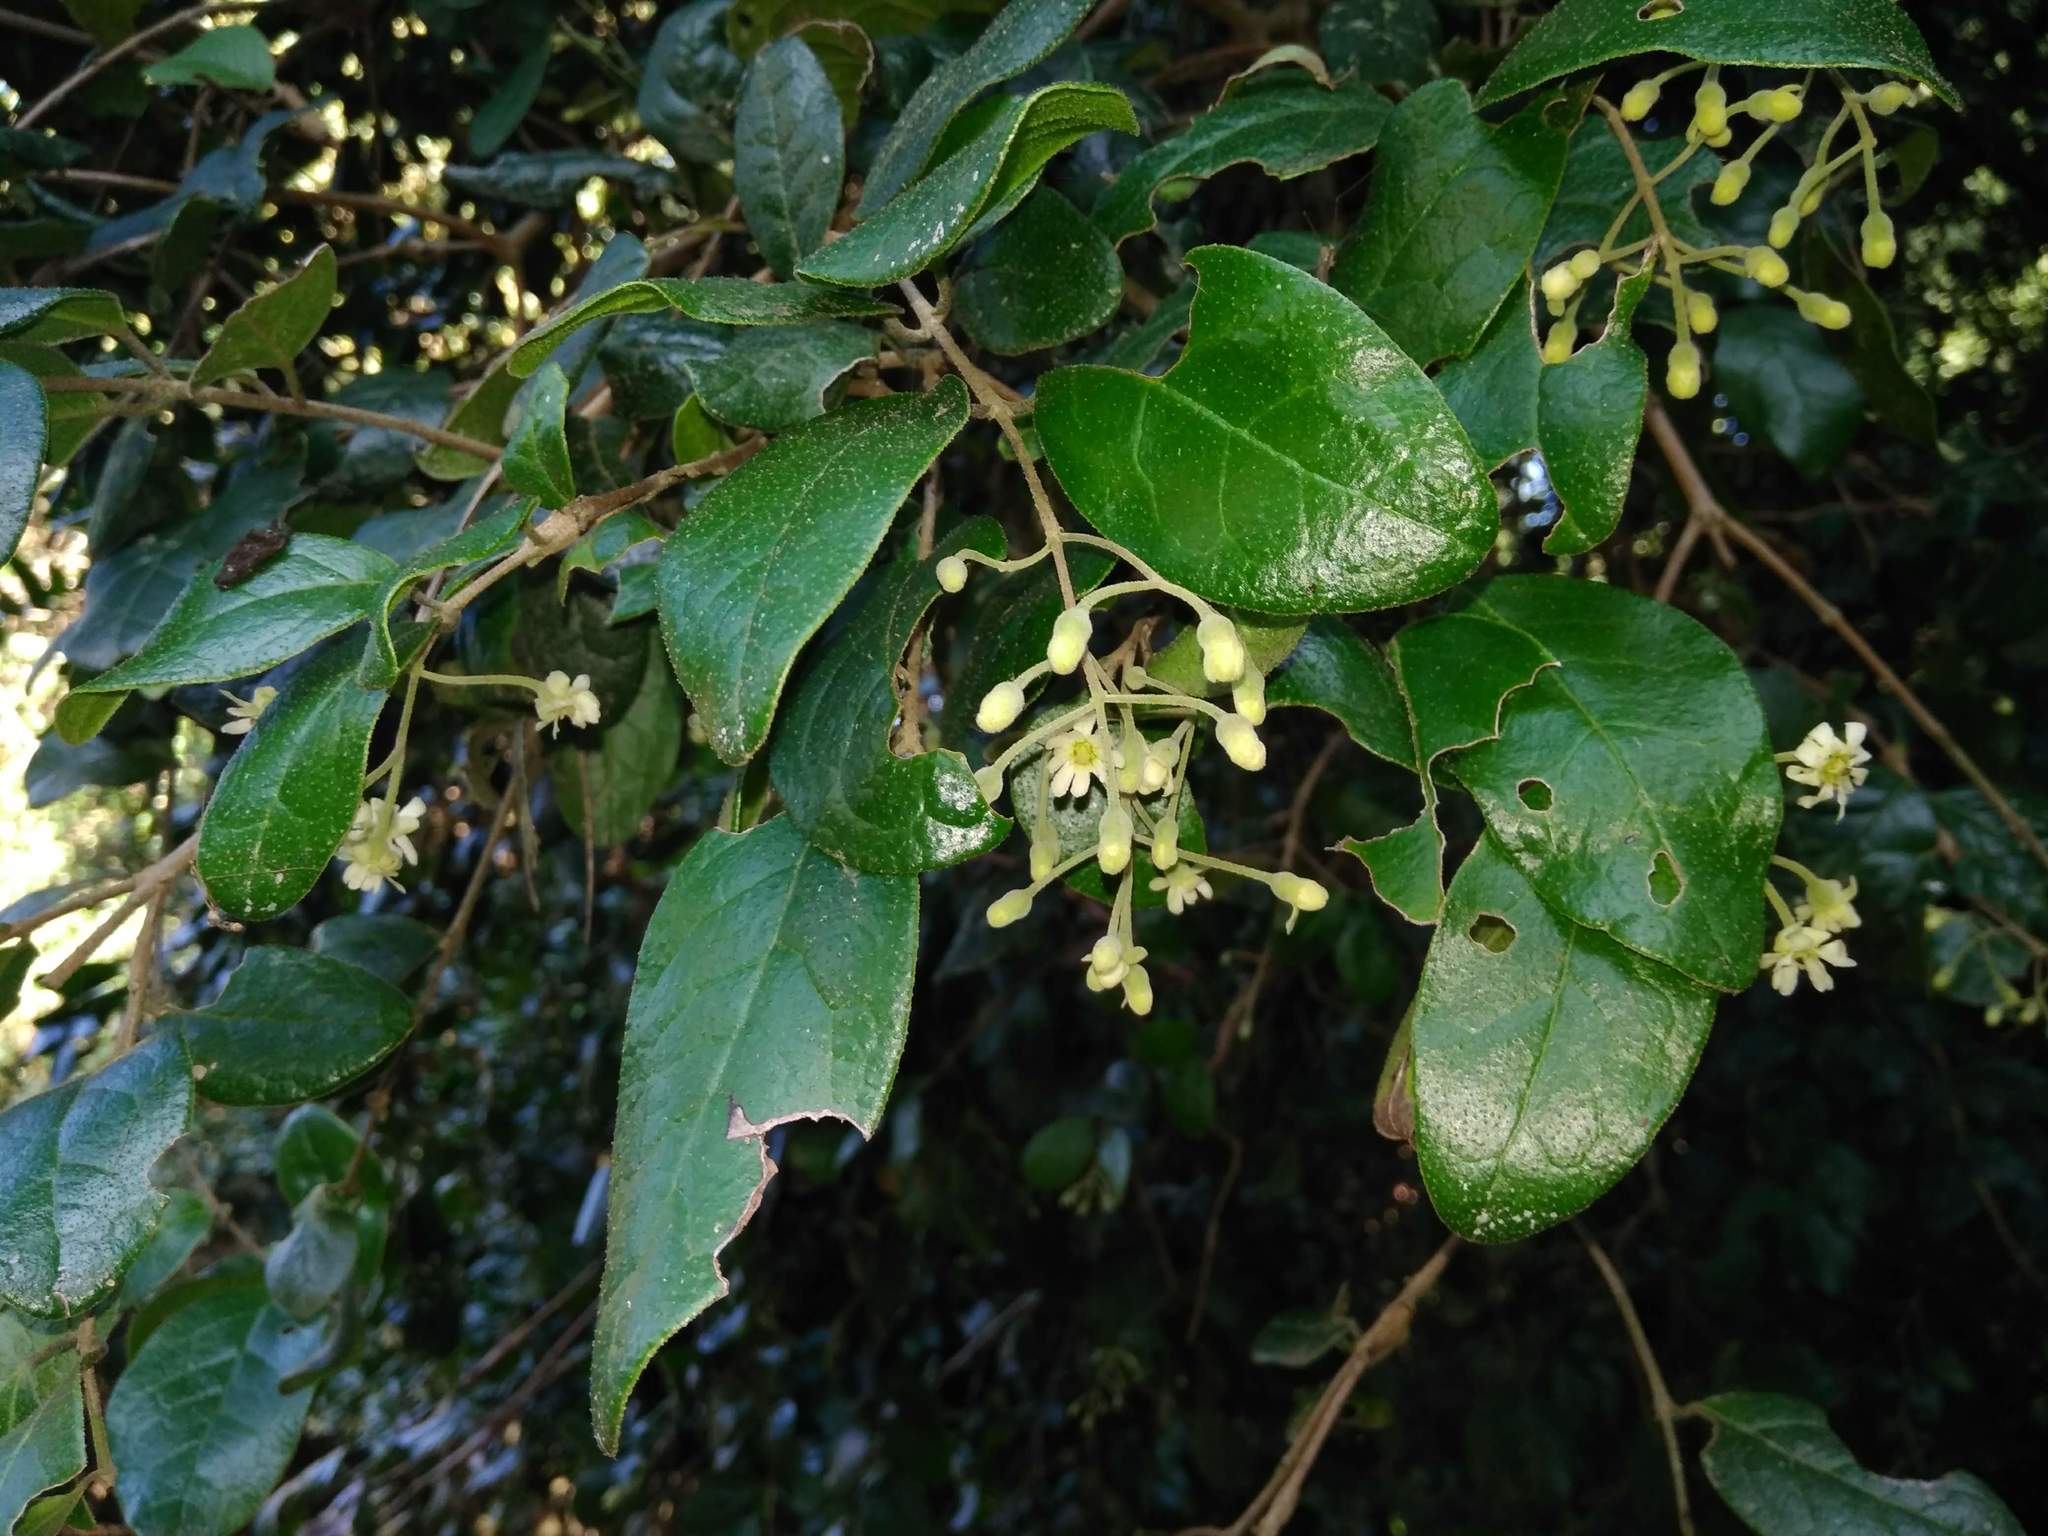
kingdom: Plantae
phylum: Tracheophyta
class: Magnoliopsida
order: Laurales
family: Monimiaceae
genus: Peumus
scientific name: Peumus boldus
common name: Boldo
